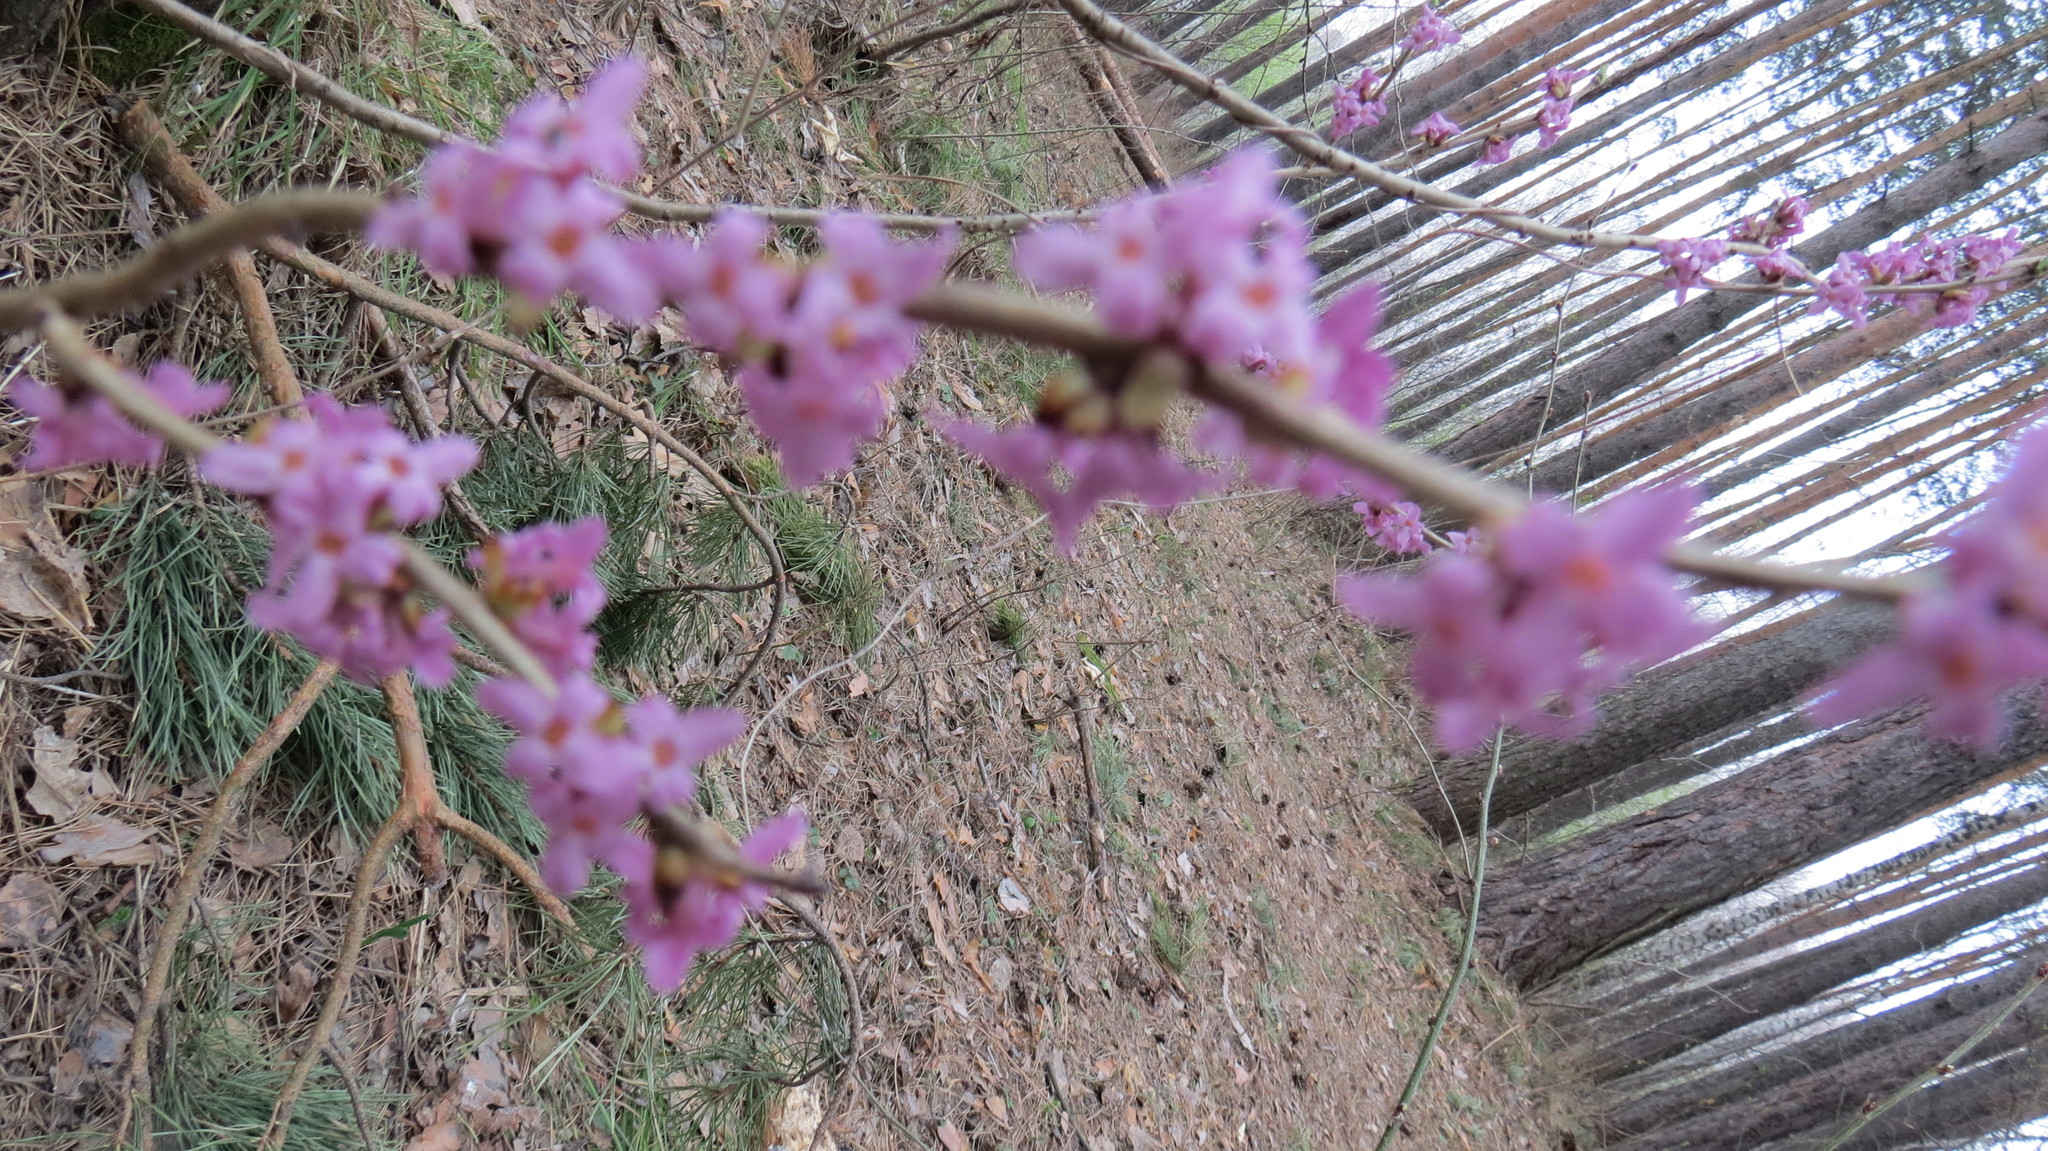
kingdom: Plantae
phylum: Tracheophyta
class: Magnoliopsida
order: Malvales
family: Thymelaeaceae
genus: Daphne
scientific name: Daphne mezereum
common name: Mezereon
